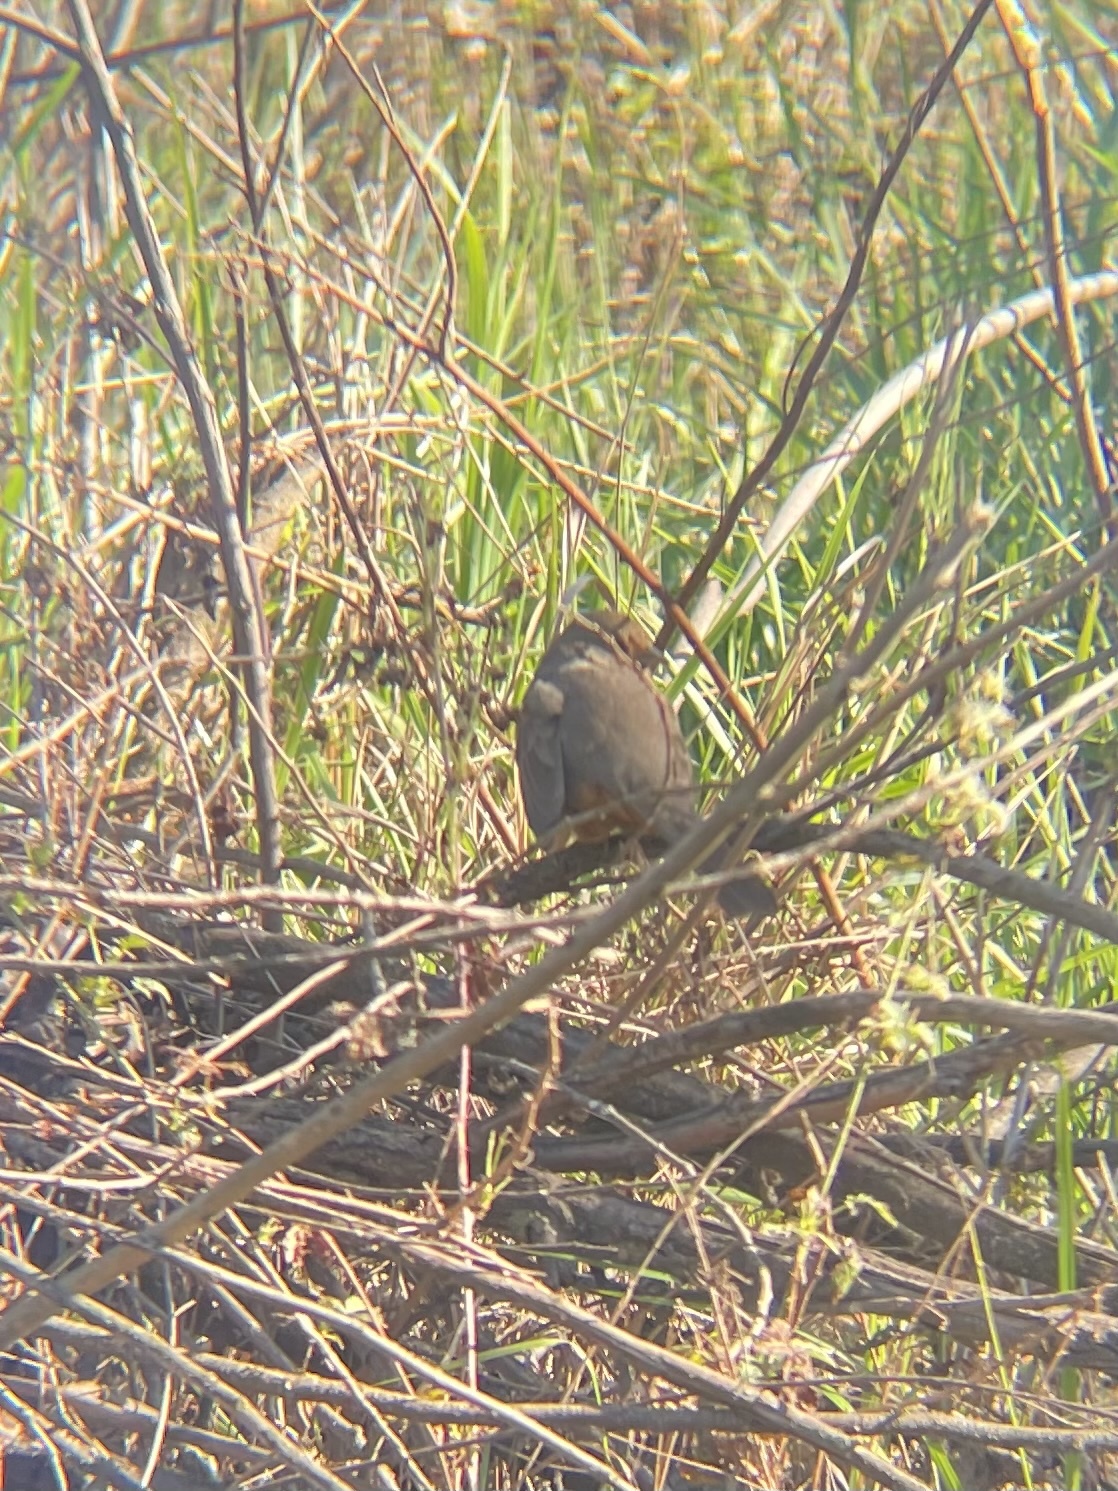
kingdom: Animalia
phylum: Chordata
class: Aves
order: Passeriformes
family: Passerellidae
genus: Melozone
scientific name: Melozone crissalis
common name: California towhee
